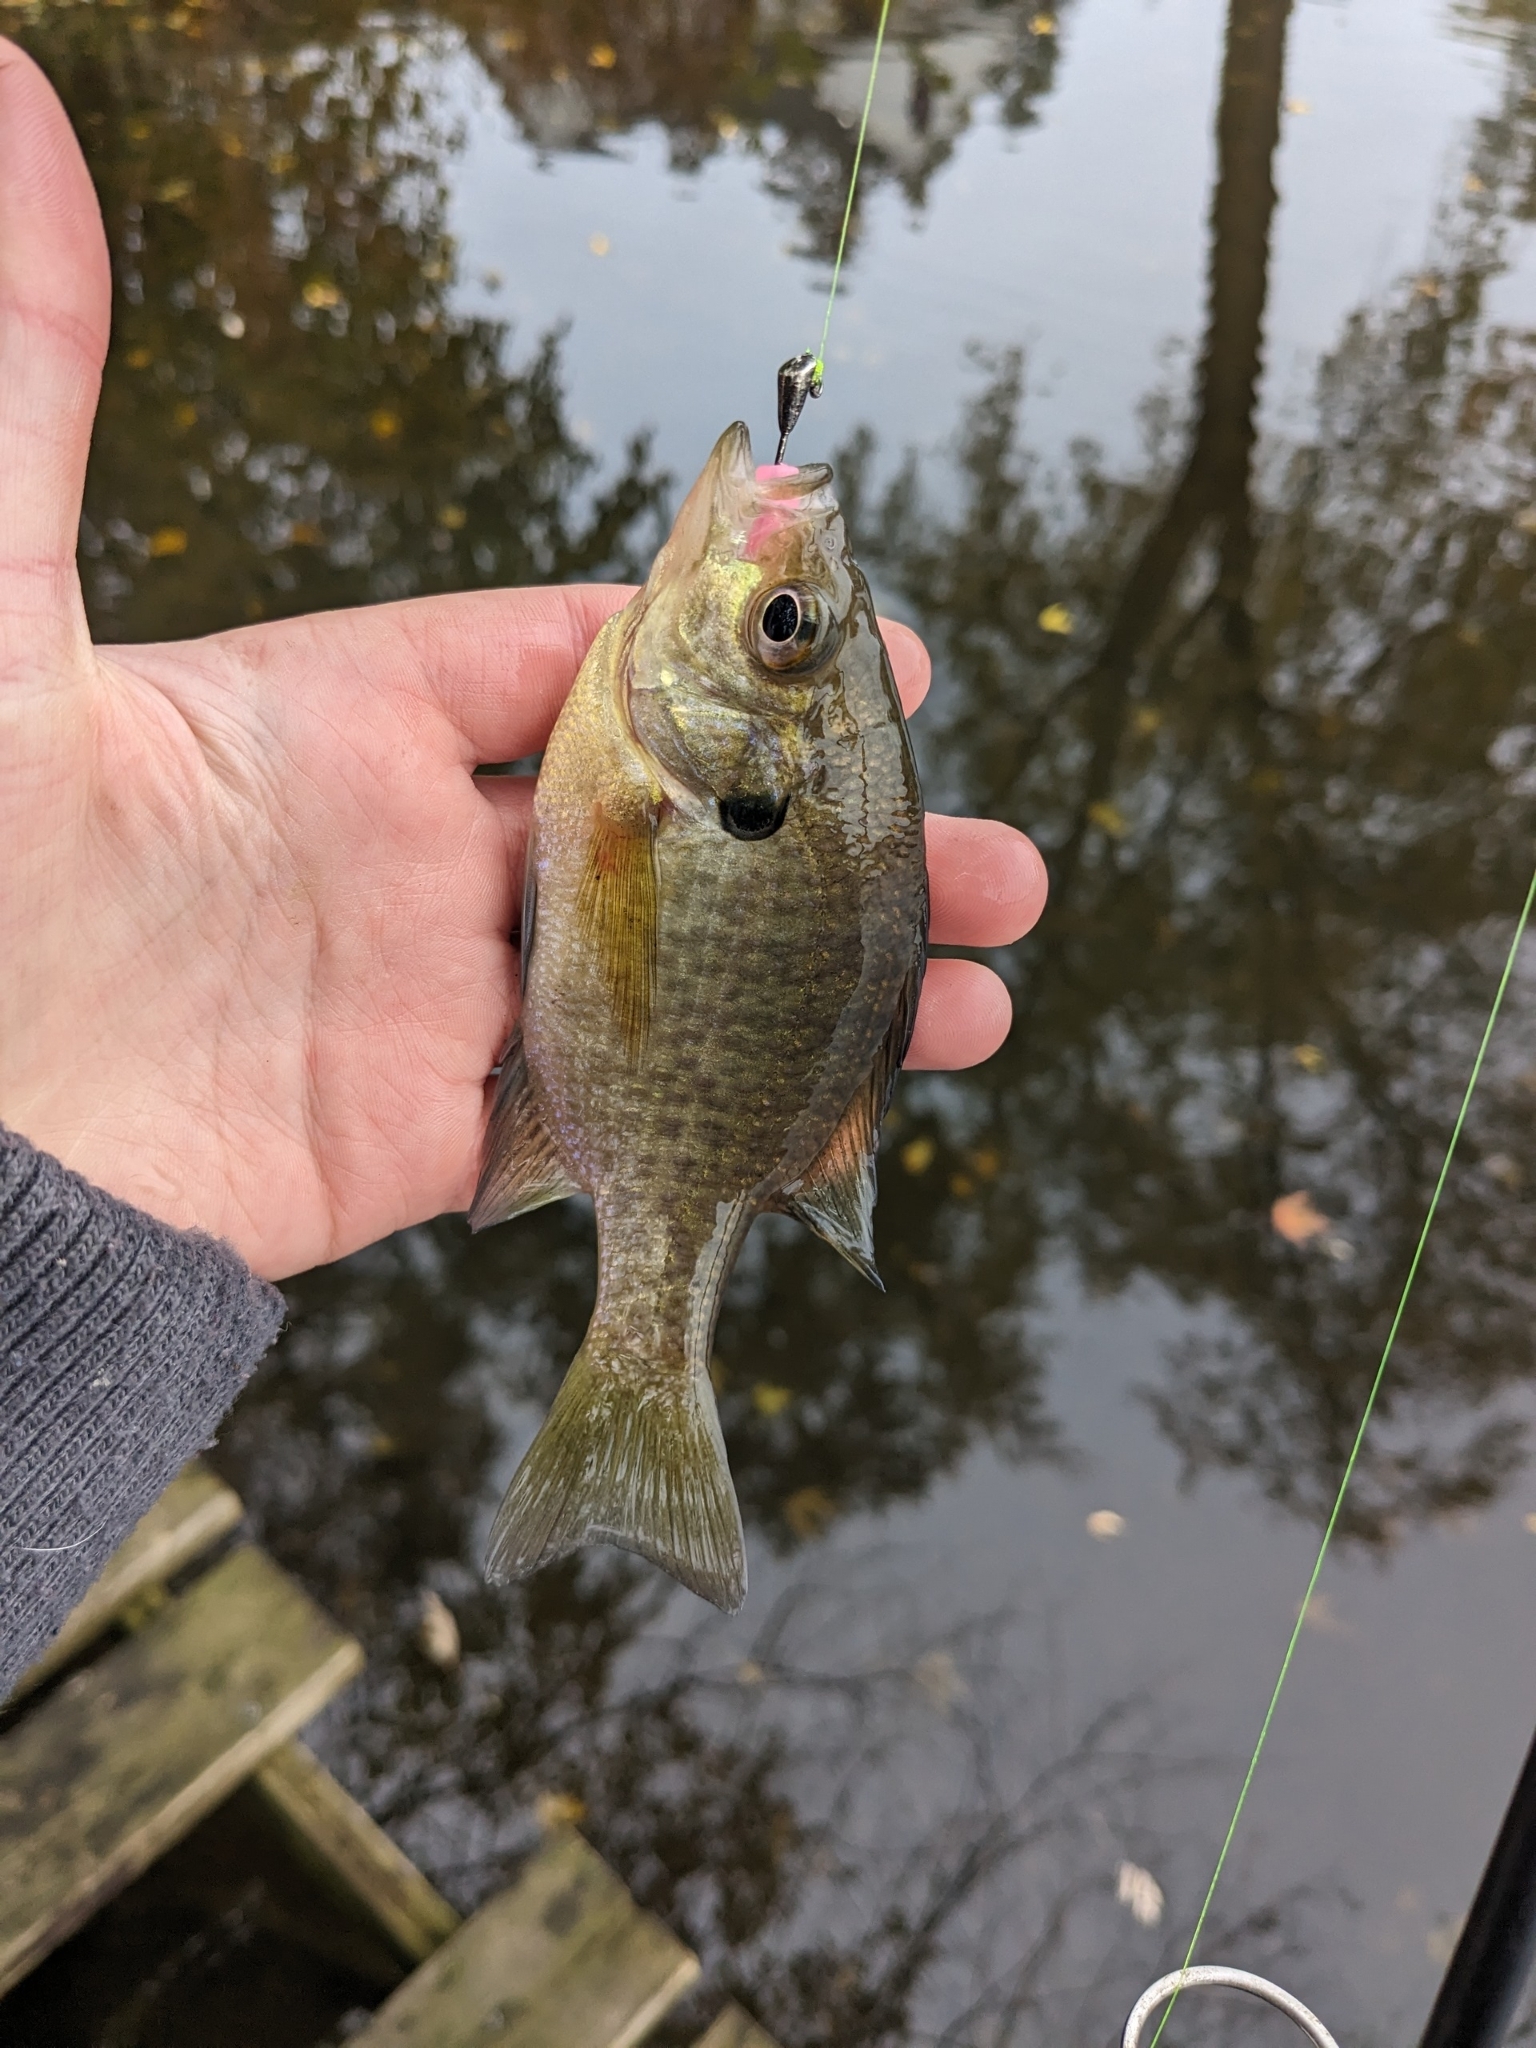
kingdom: Animalia
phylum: Chordata
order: Perciformes
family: Centrarchidae
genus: Lepomis
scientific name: Lepomis macrochirus
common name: Bluegill
